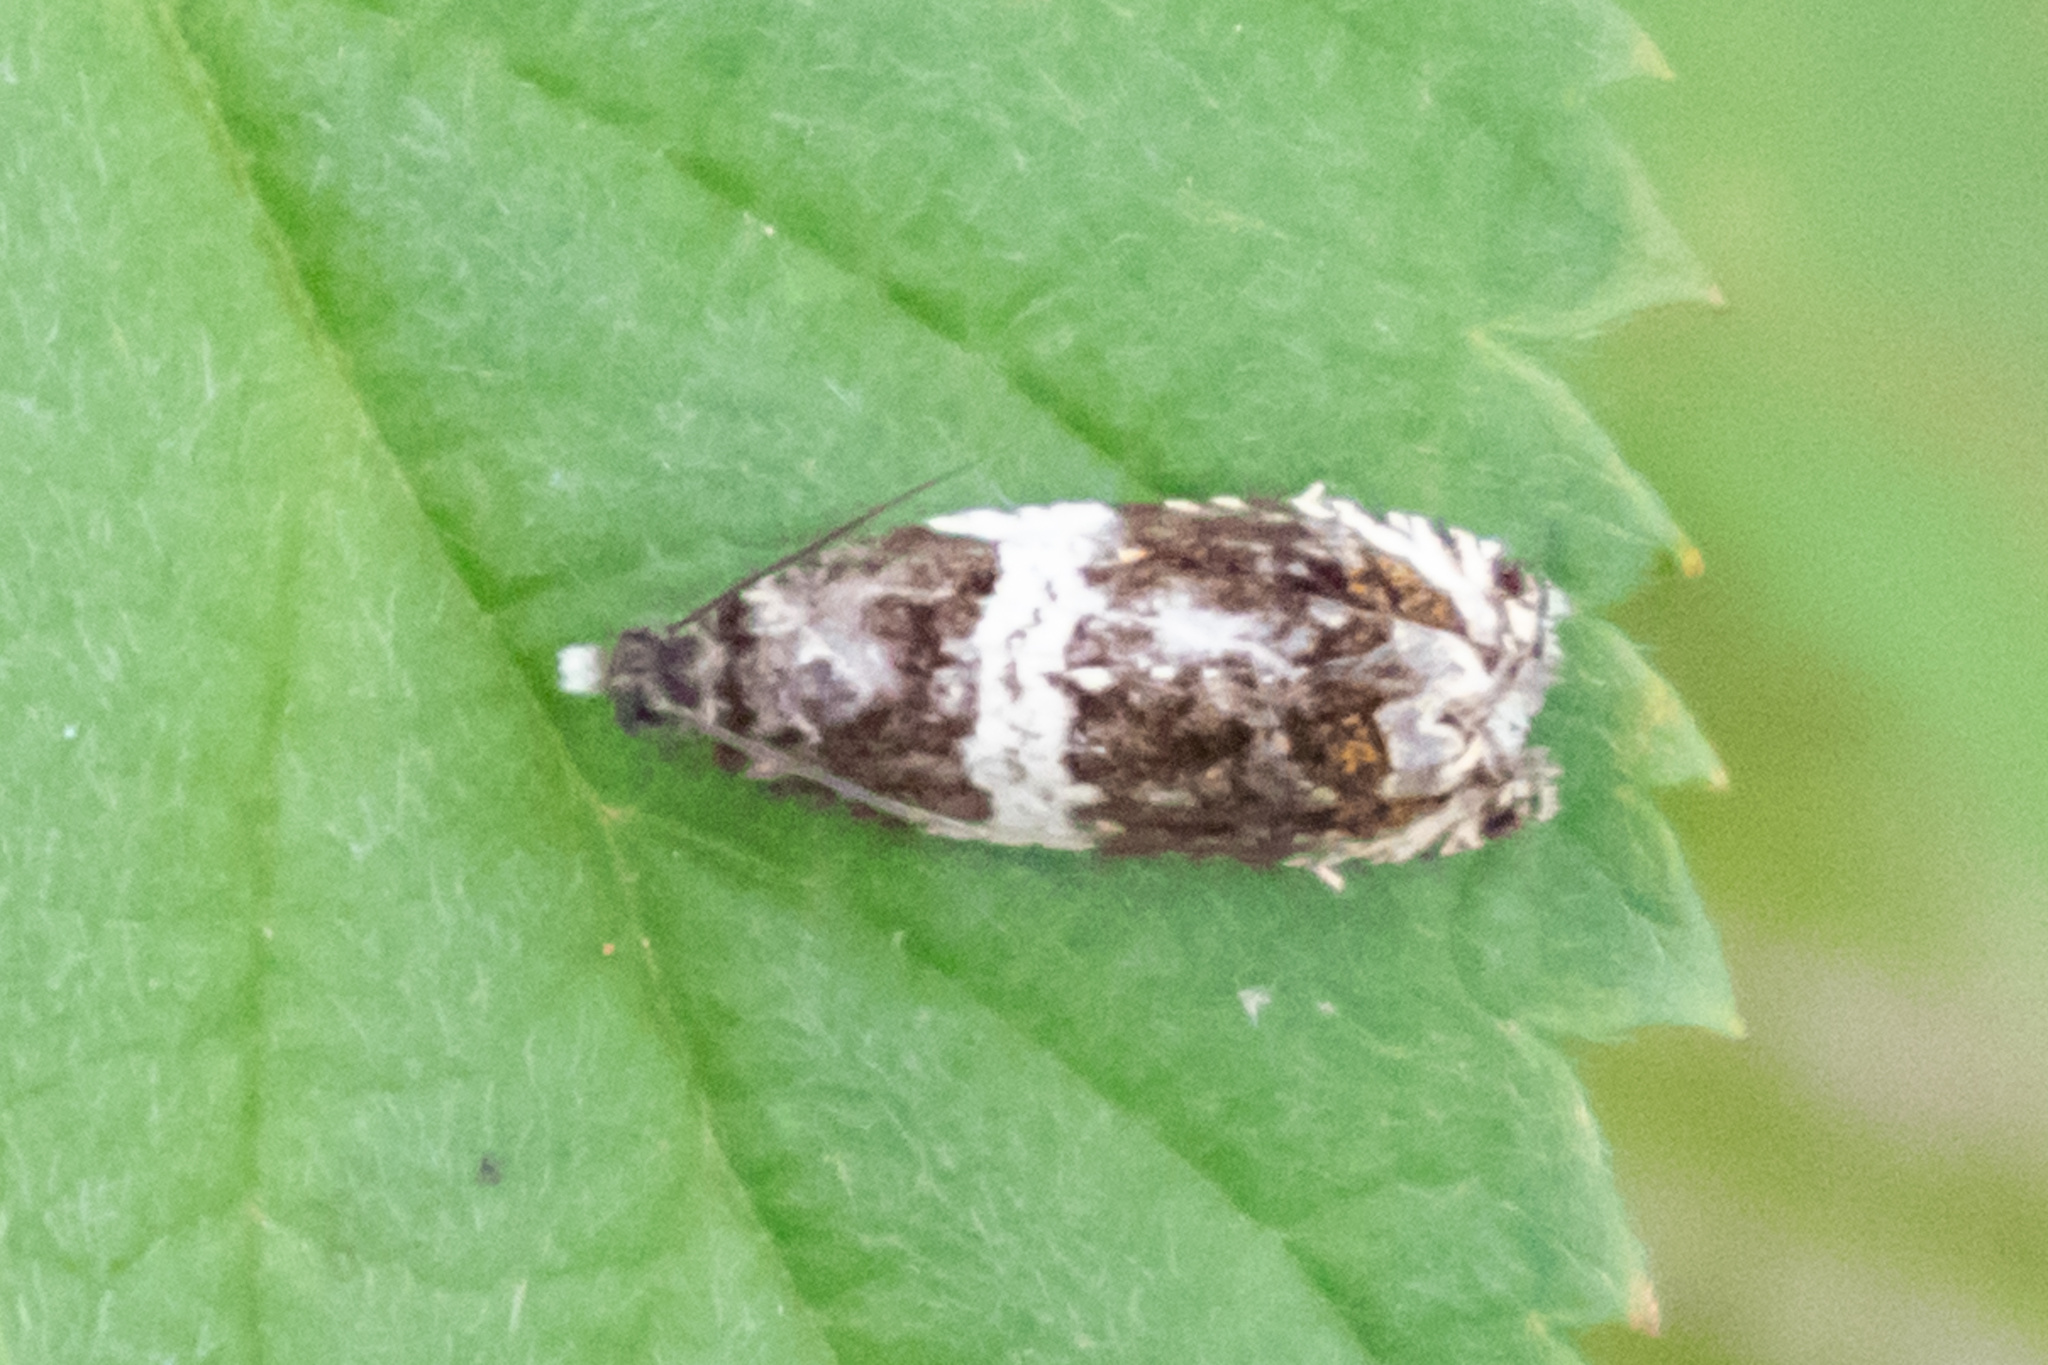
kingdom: Animalia
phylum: Arthropoda
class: Insecta
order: Lepidoptera
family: Tortricidae
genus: Olethreutes
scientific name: Olethreutes fasciatana
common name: Banded olethreutes moth
